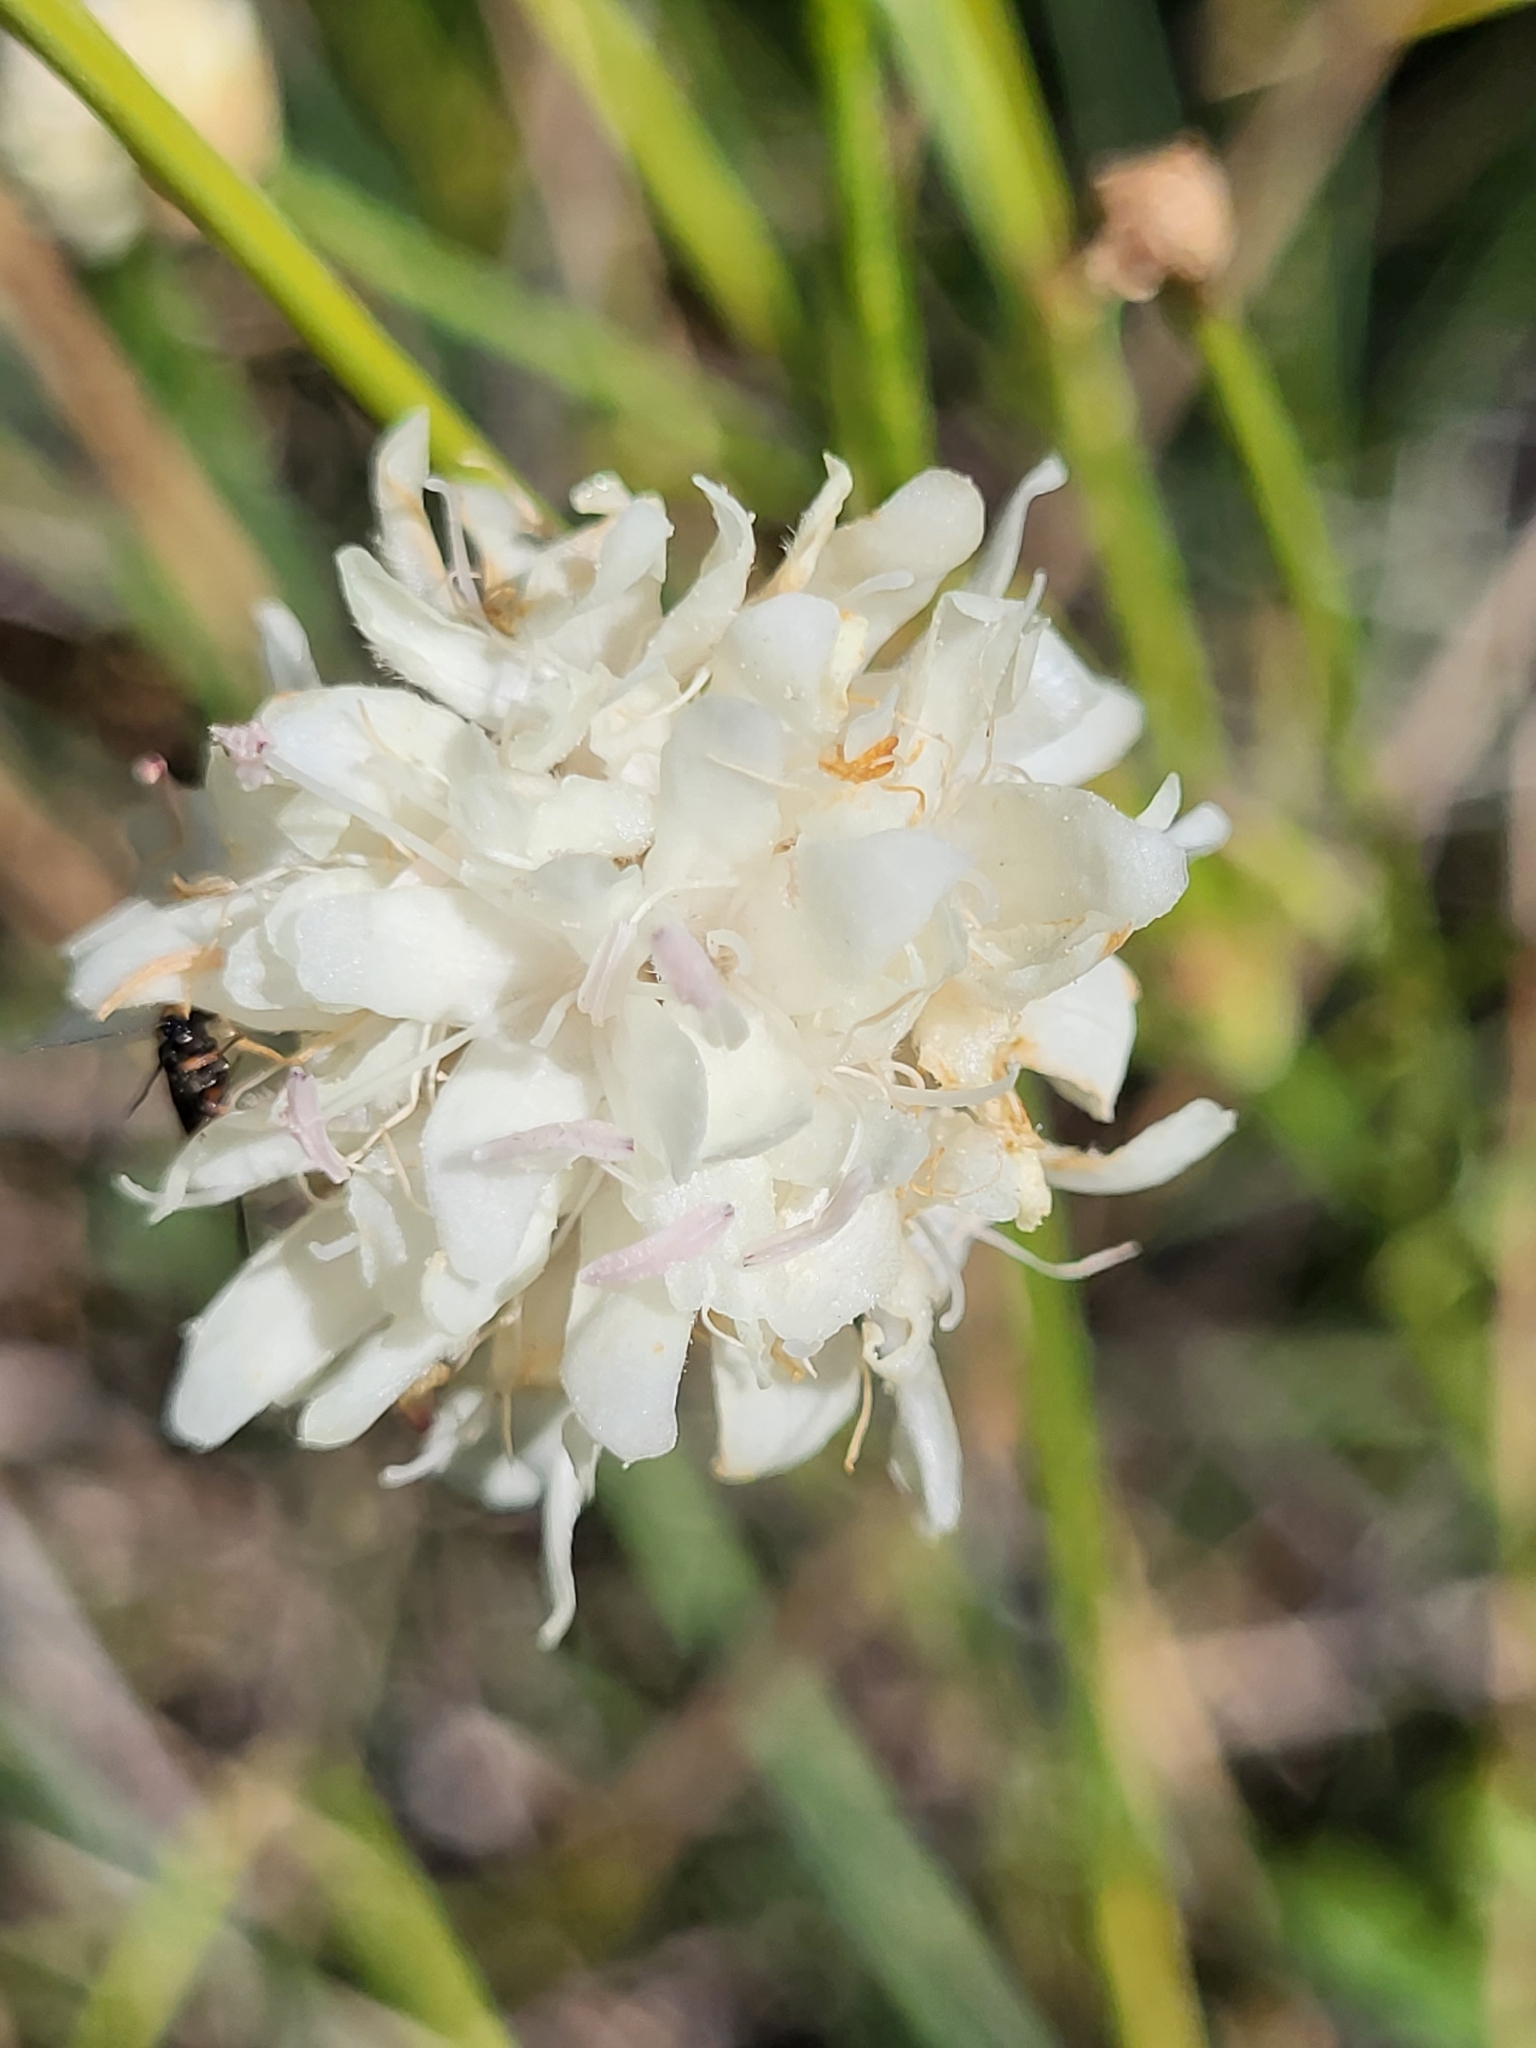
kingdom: Plantae
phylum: Tracheophyta
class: Magnoliopsida
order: Dipsacales
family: Caprifoliaceae
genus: Cephalaria
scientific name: Cephalaria leucantha
